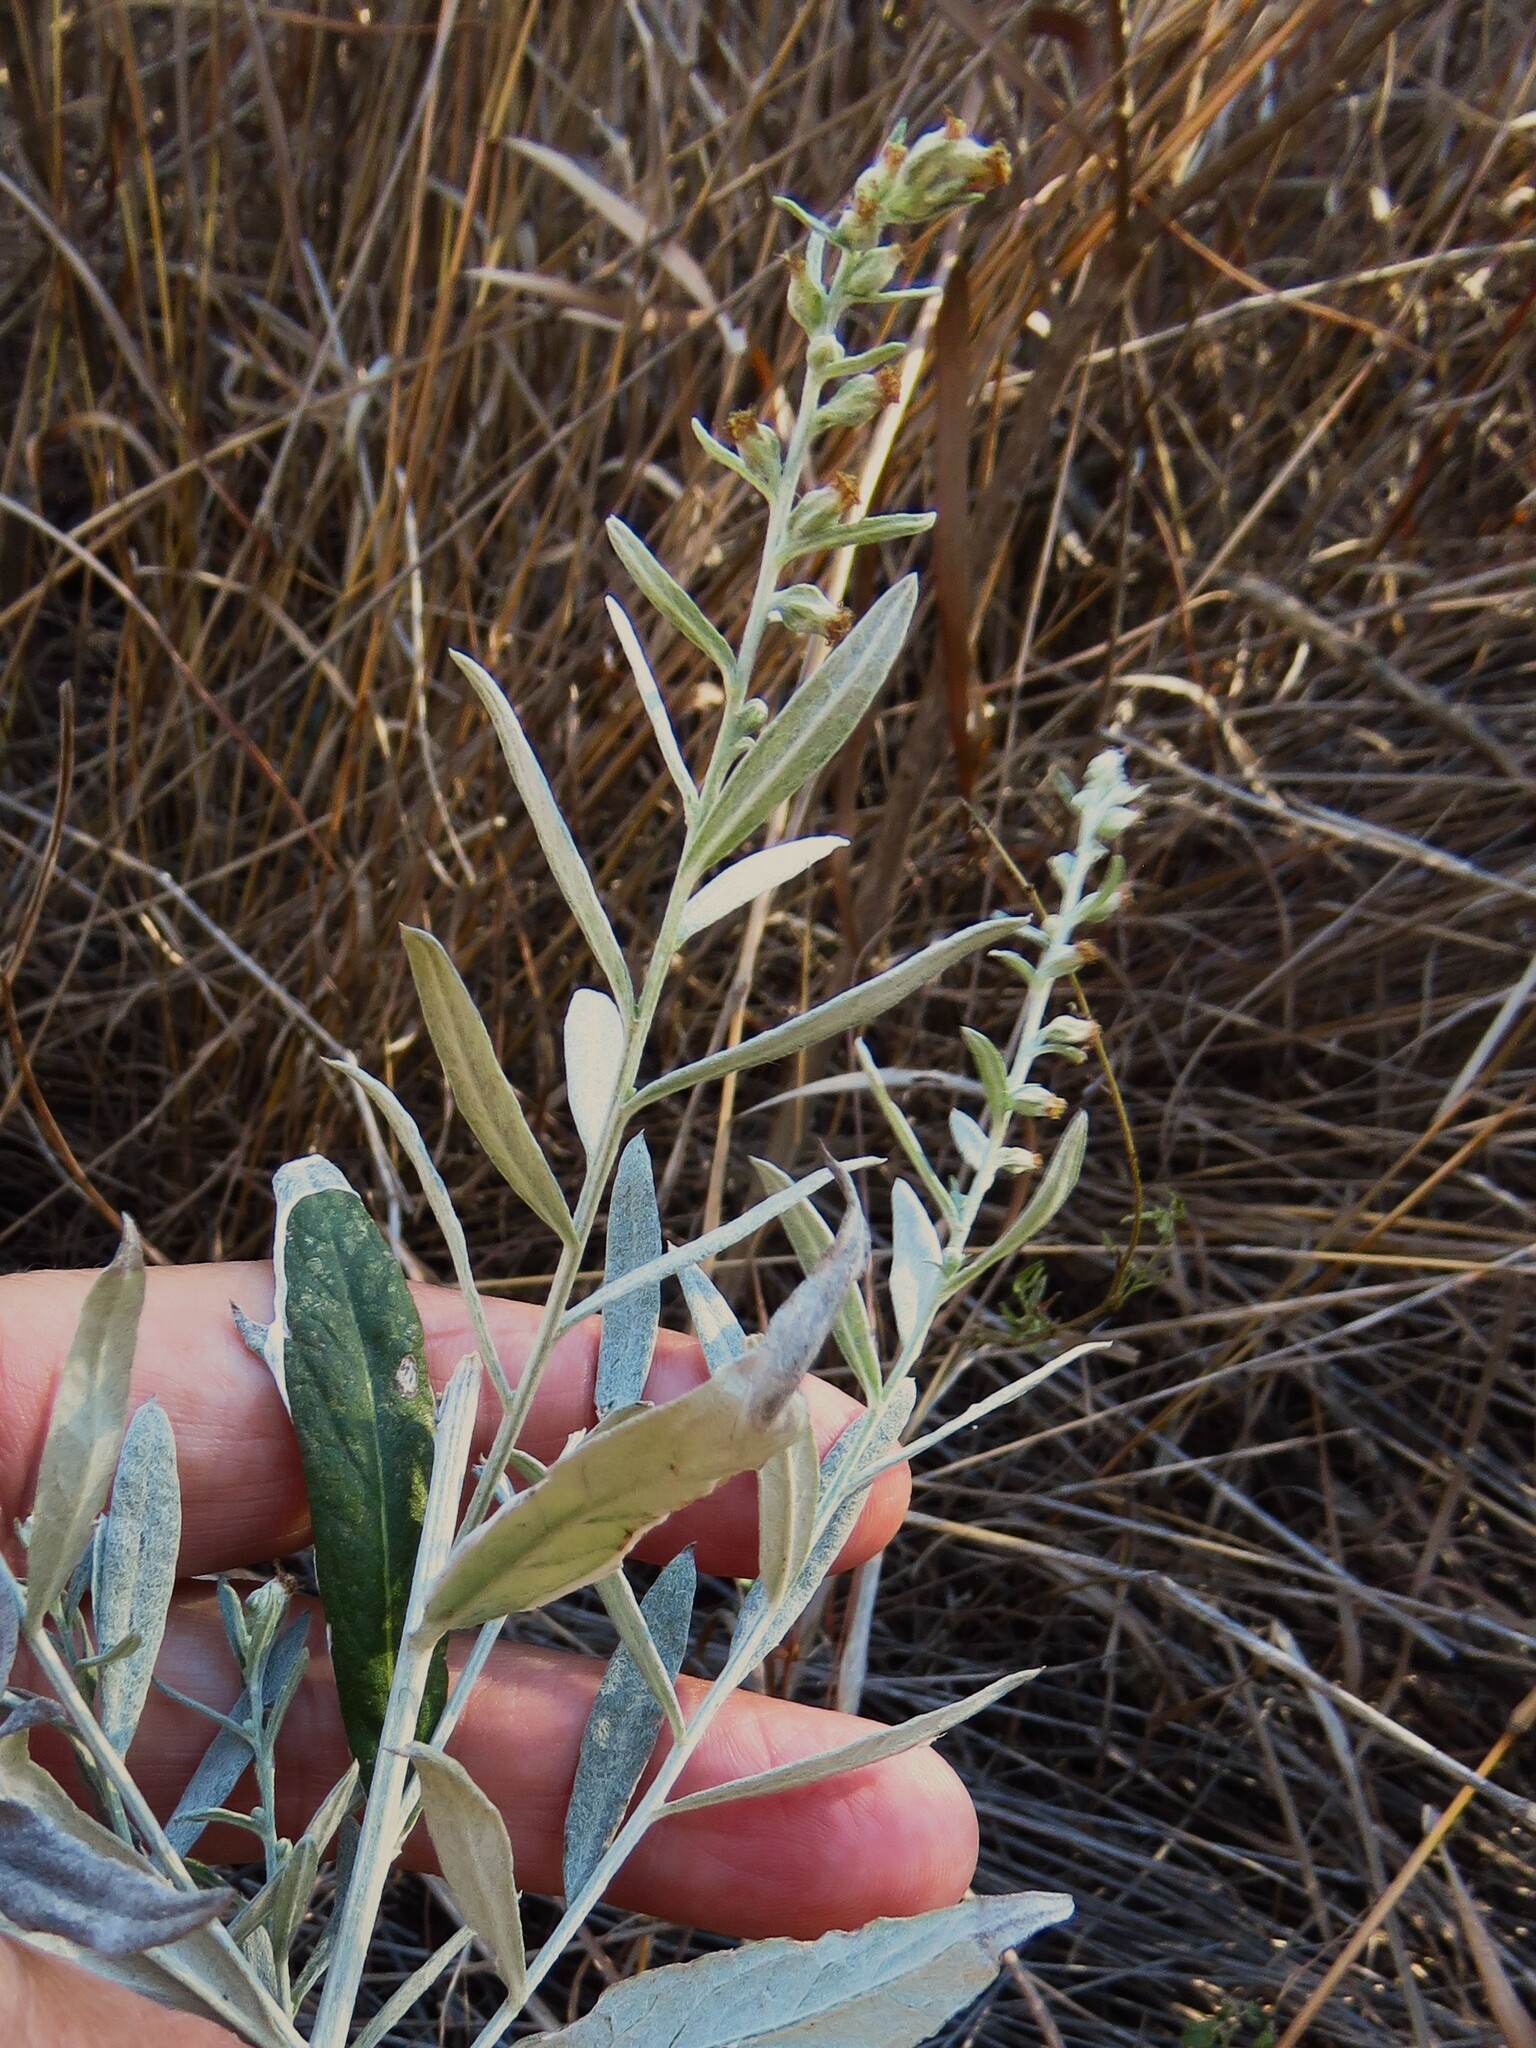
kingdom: Plantae
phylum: Tracheophyta
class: Magnoliopsida
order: Asterales
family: Asteraceae
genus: Artemisia
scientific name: Artemisia ludoviciana
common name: Western mugwort
